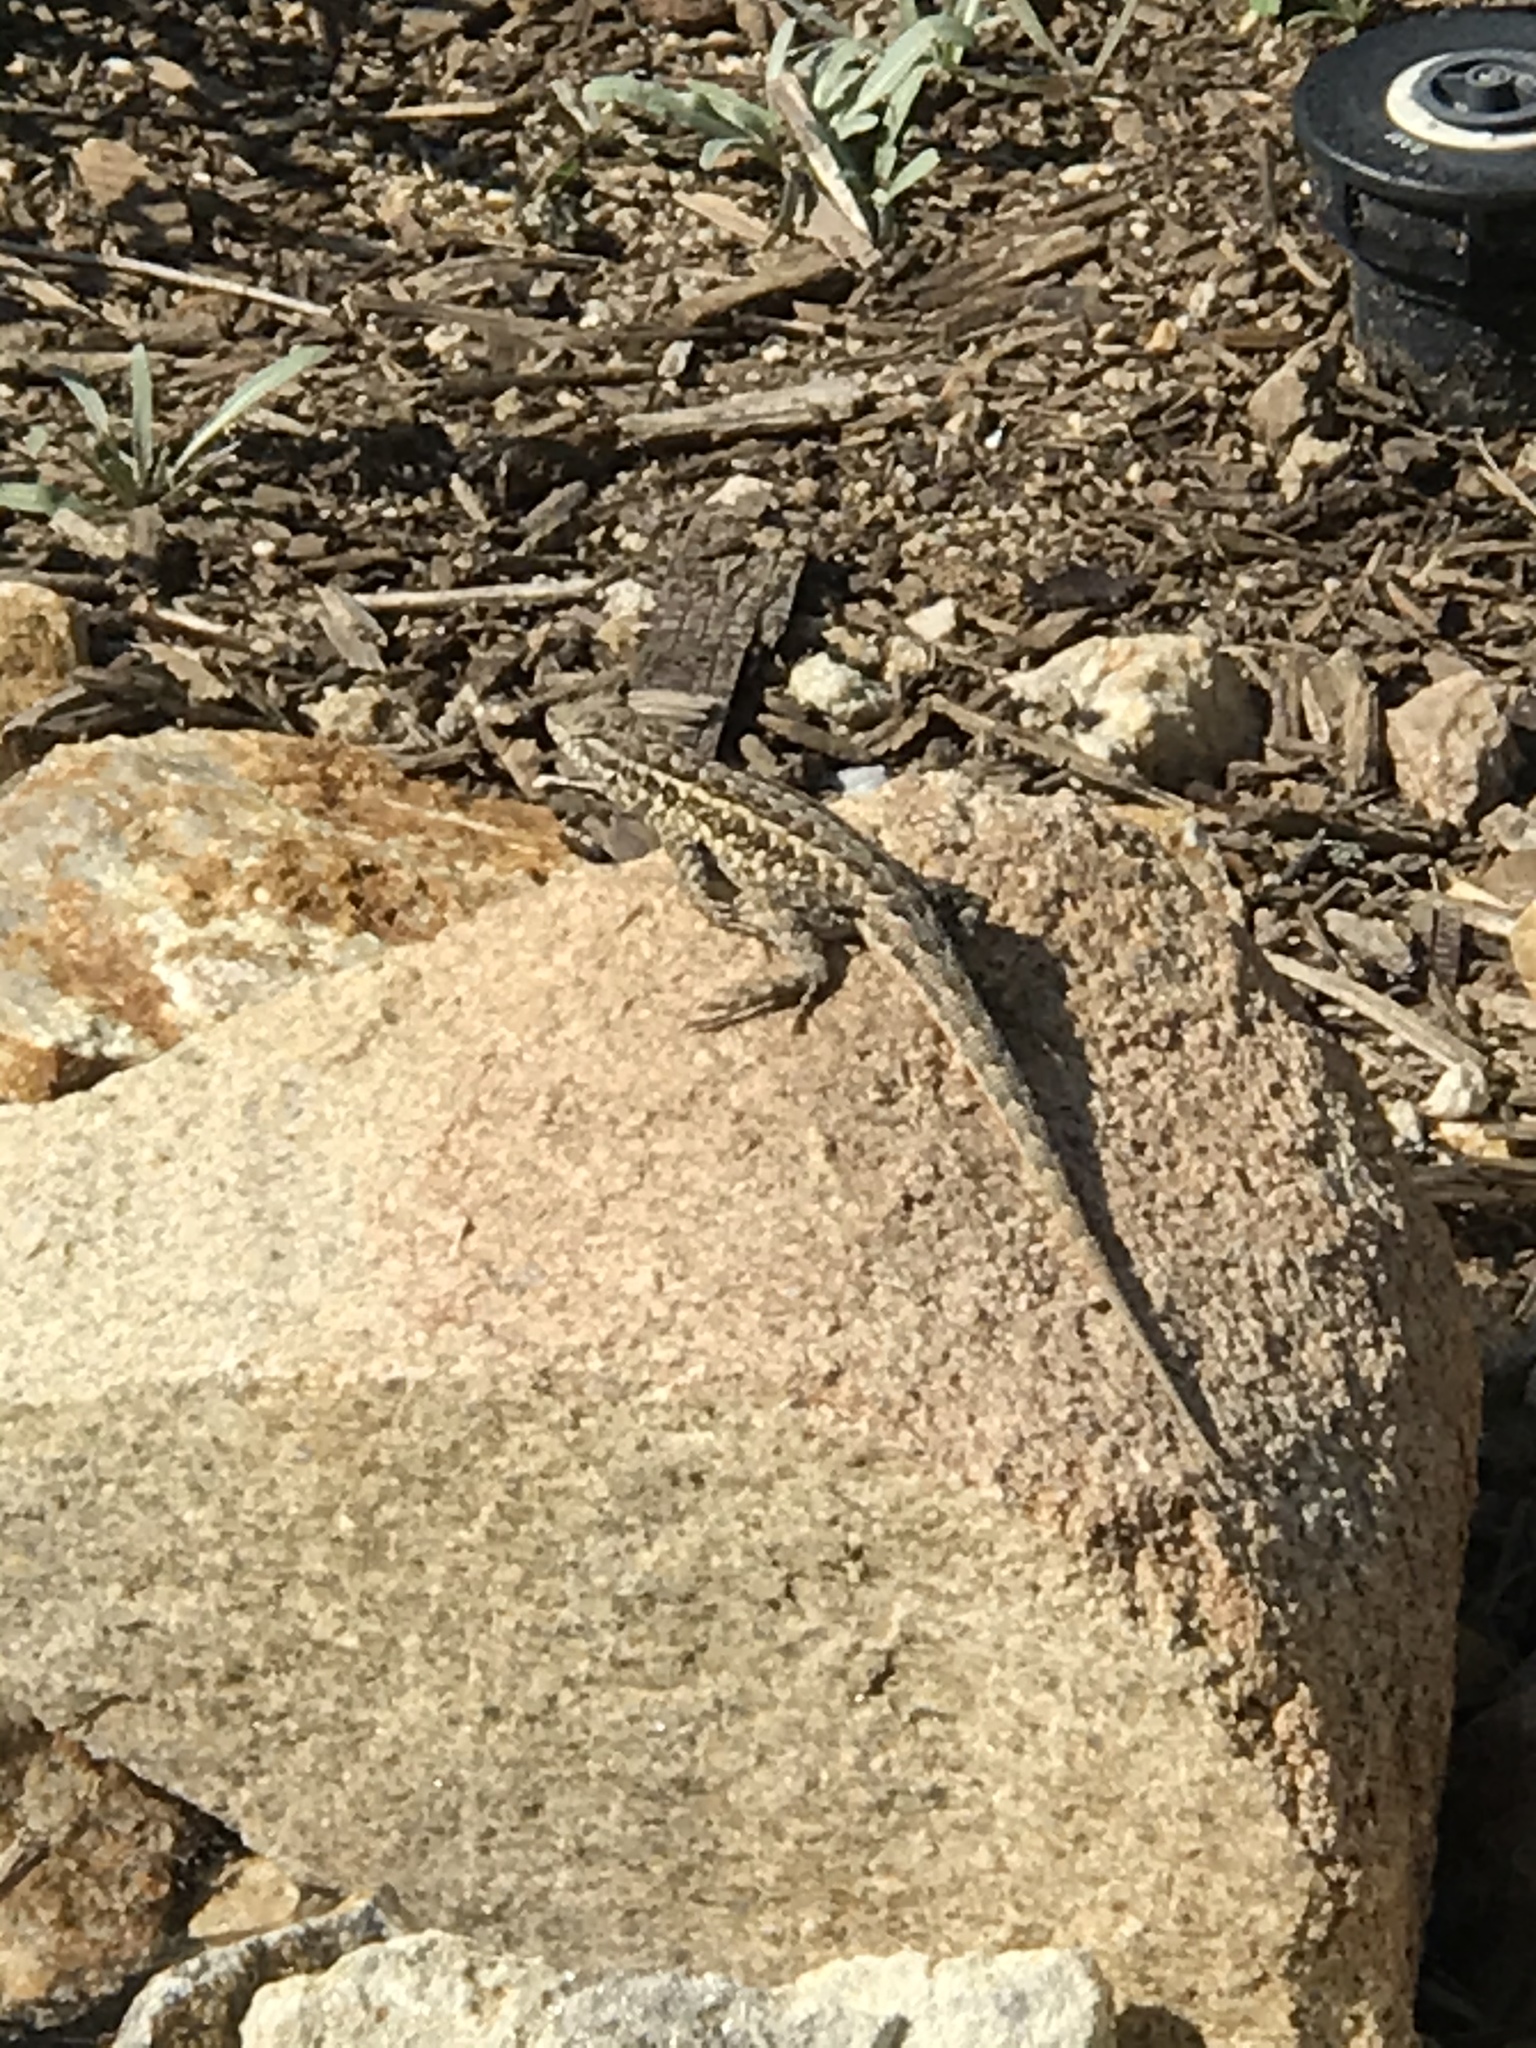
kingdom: Animalia
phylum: Chordata
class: Squamata
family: Phrynosomatidae
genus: Uta
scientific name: Uta stansburiana
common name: Side-blotched lizard
